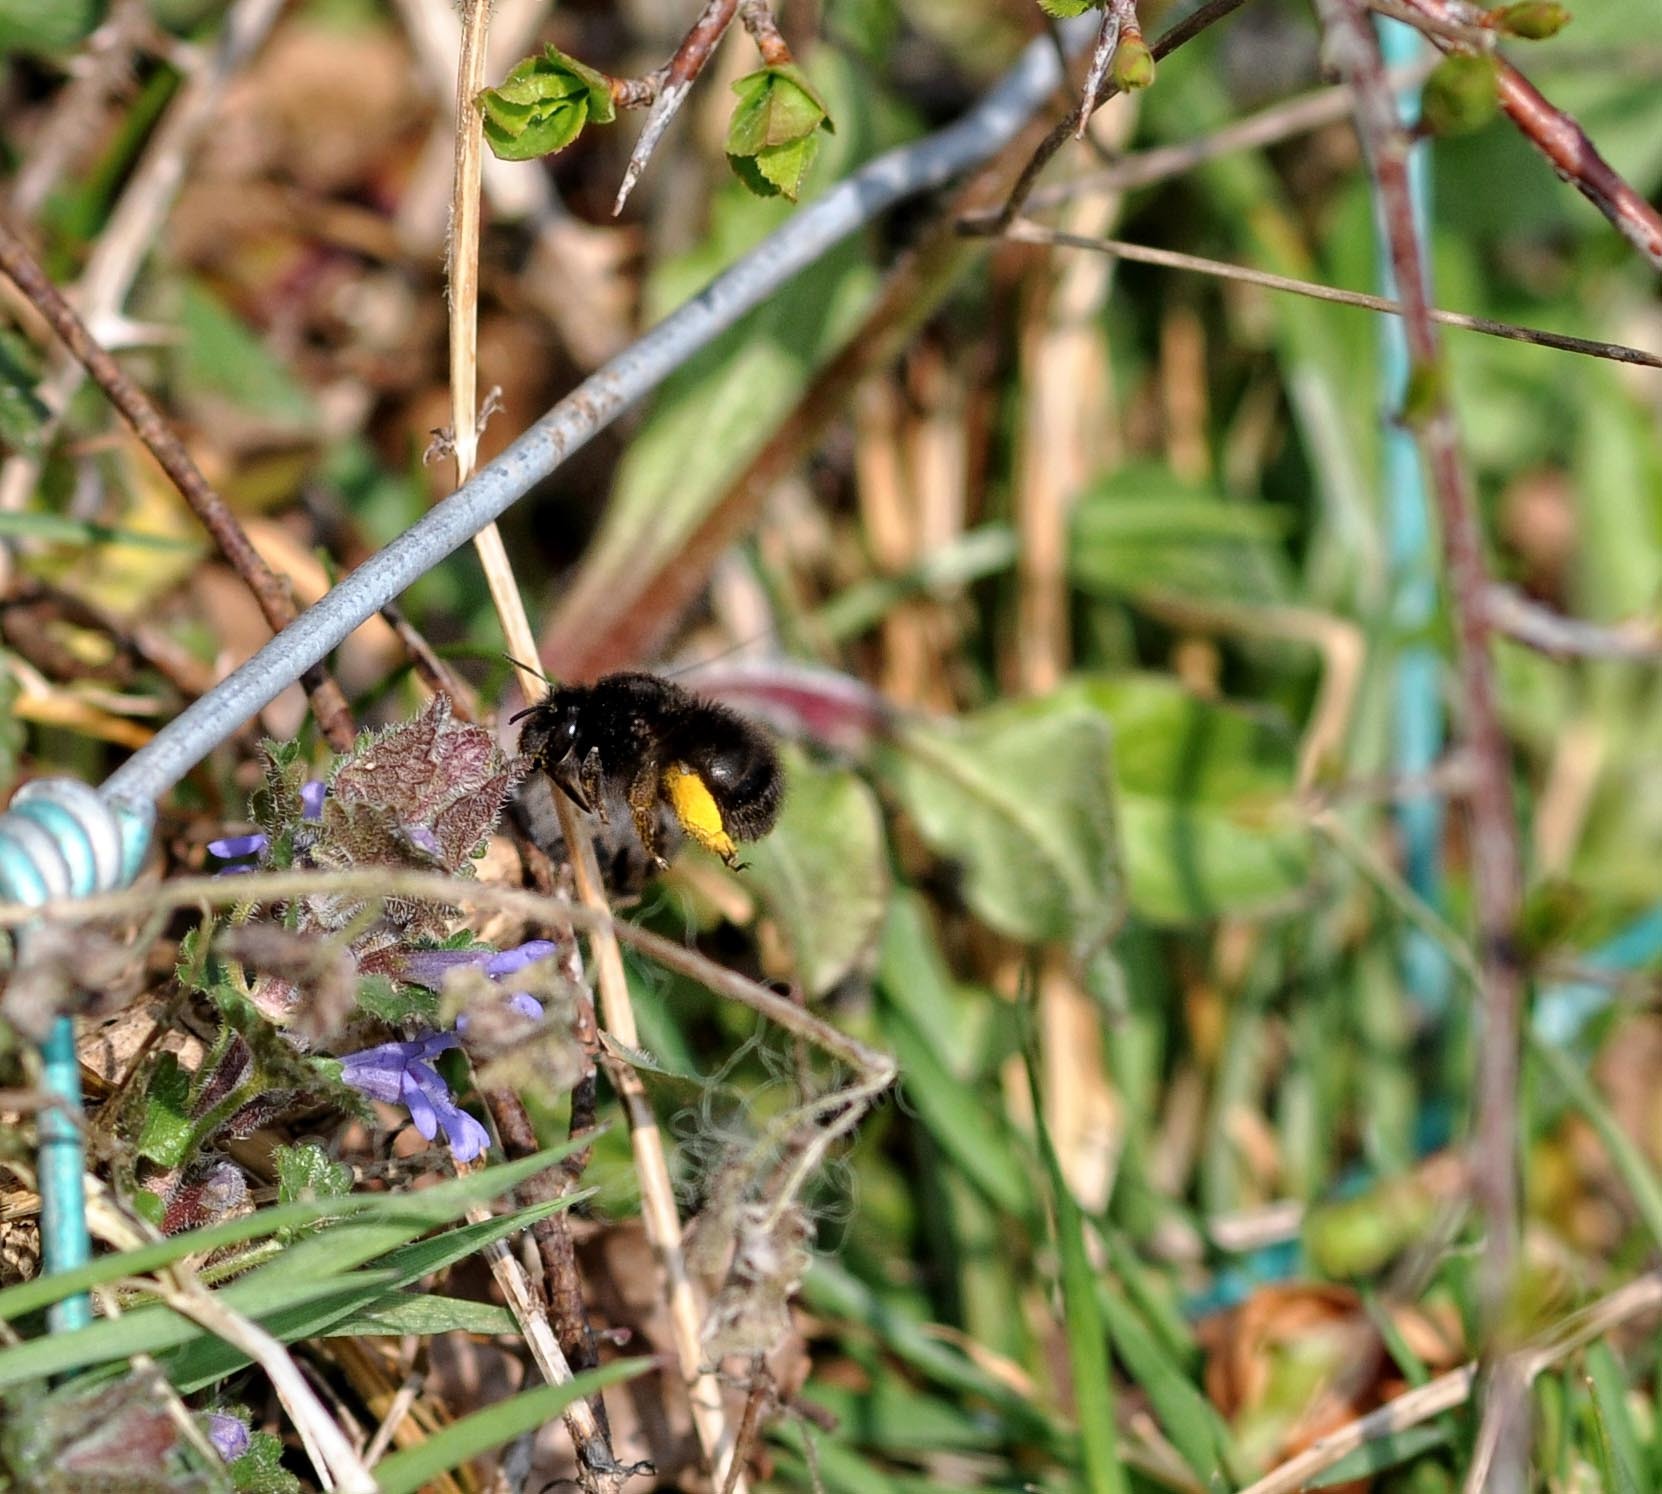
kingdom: Animalia
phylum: Arthropoda
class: Insecta
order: Hymenoptera
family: Apidae
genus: Anthophora
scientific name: Anthophora plumipes
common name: Hairy-footed flower bee
